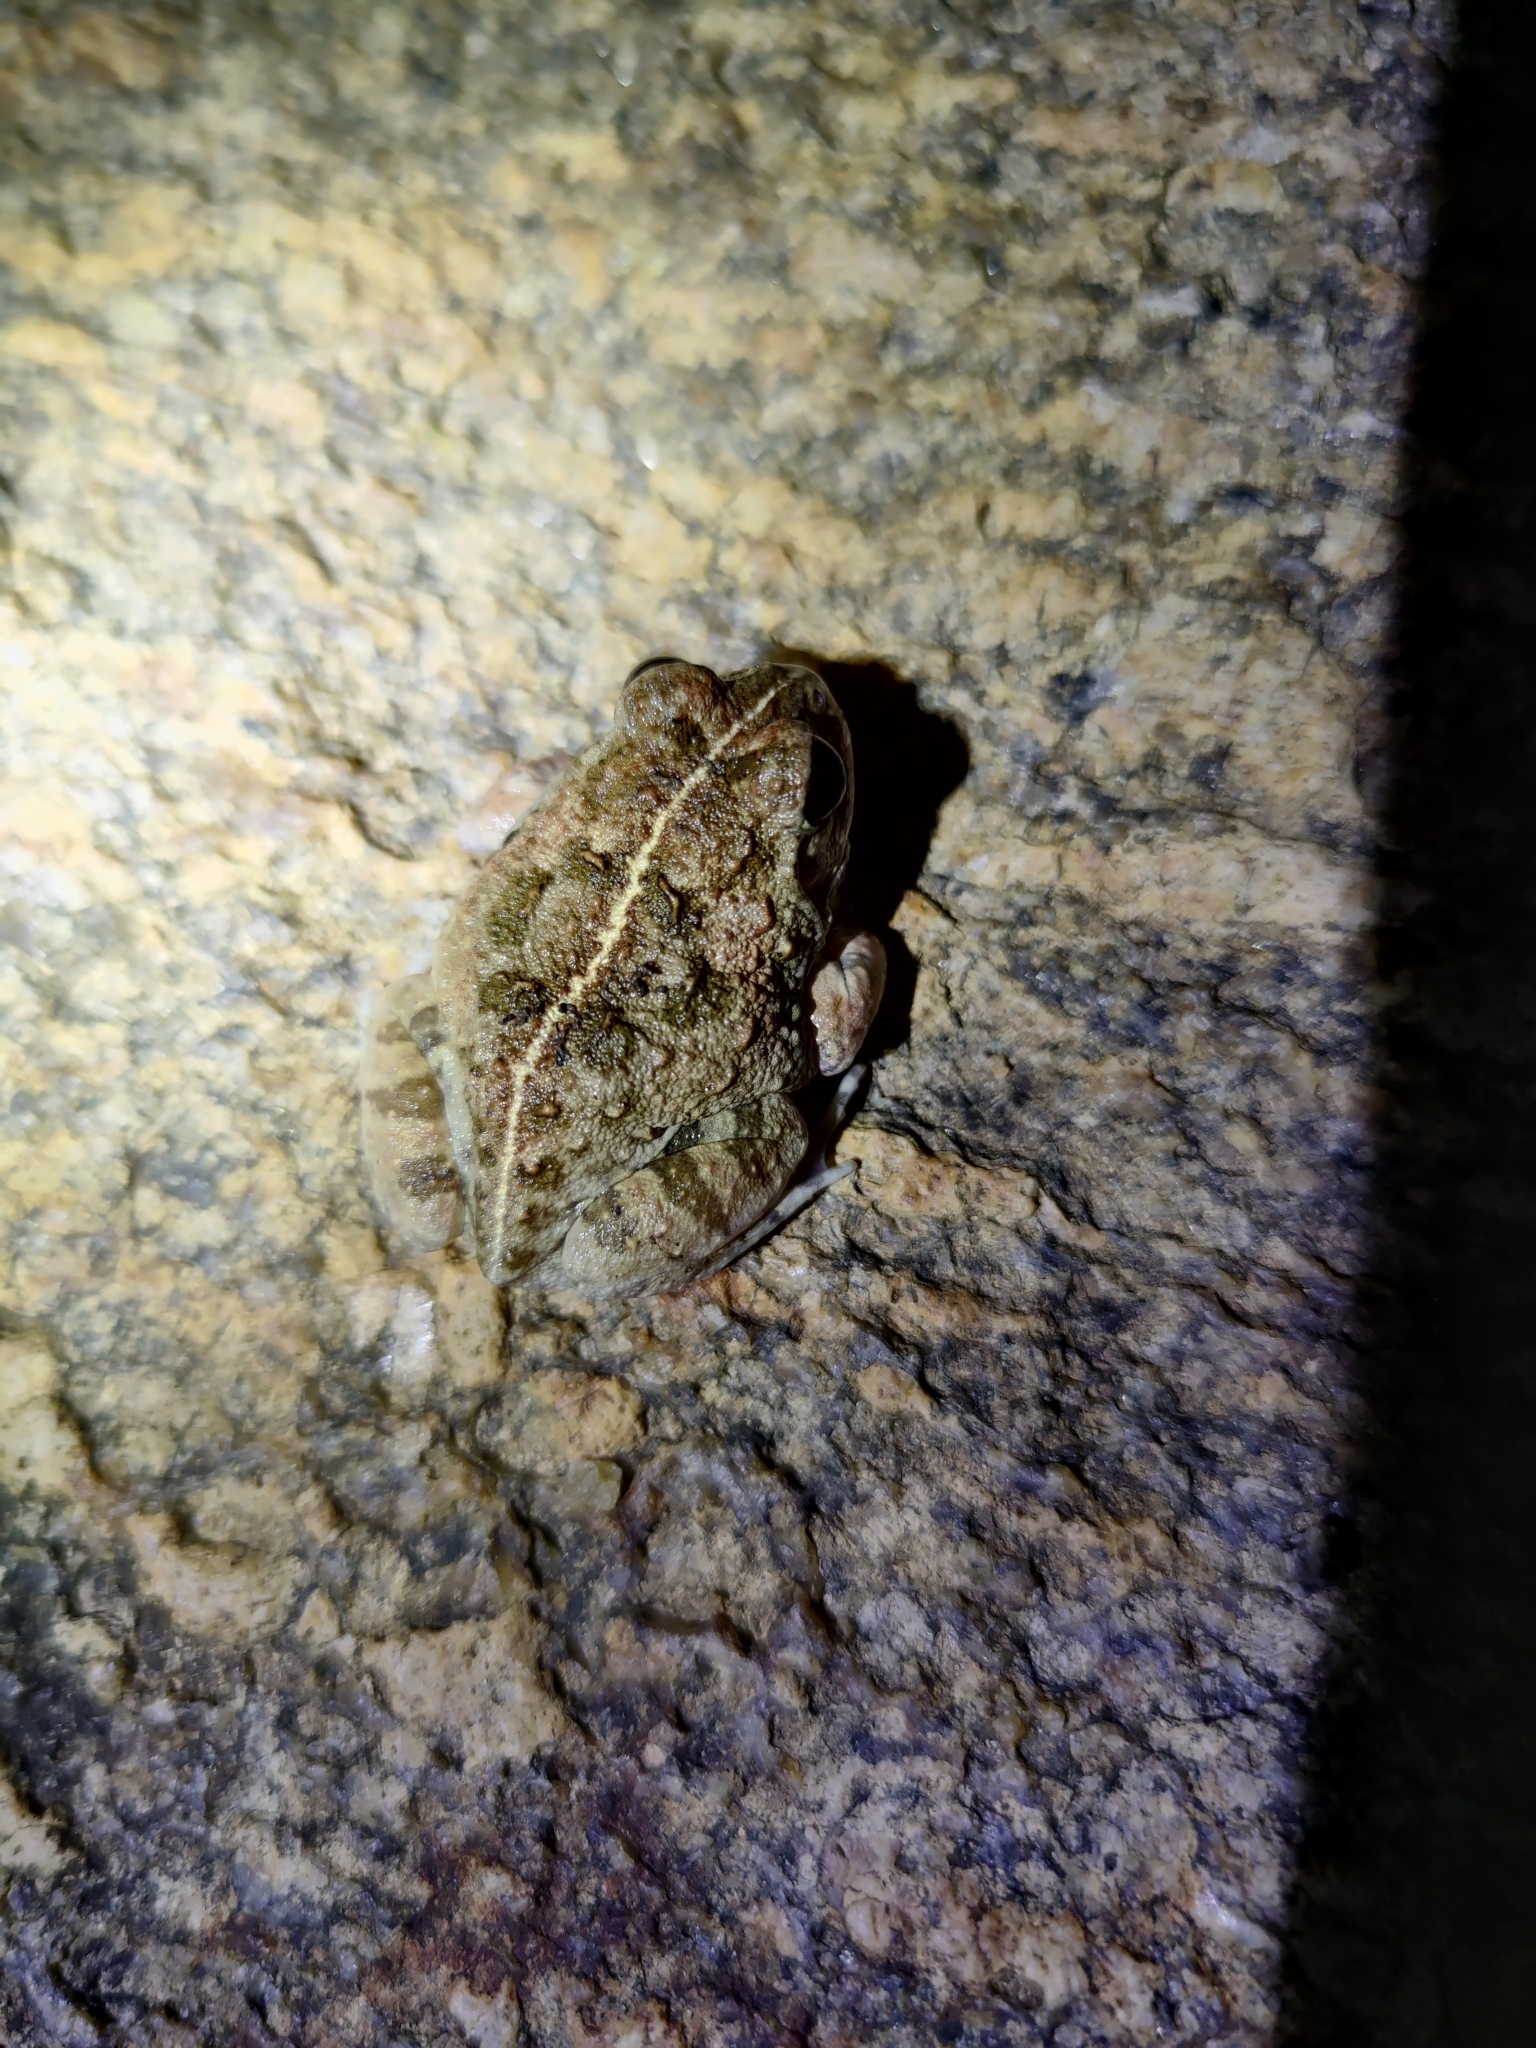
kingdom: Animalia
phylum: Chordata
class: Amphibia
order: Anura
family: Dicroglossidae
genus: Sphaerotheca
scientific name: Sphaerotheca bengaluru
